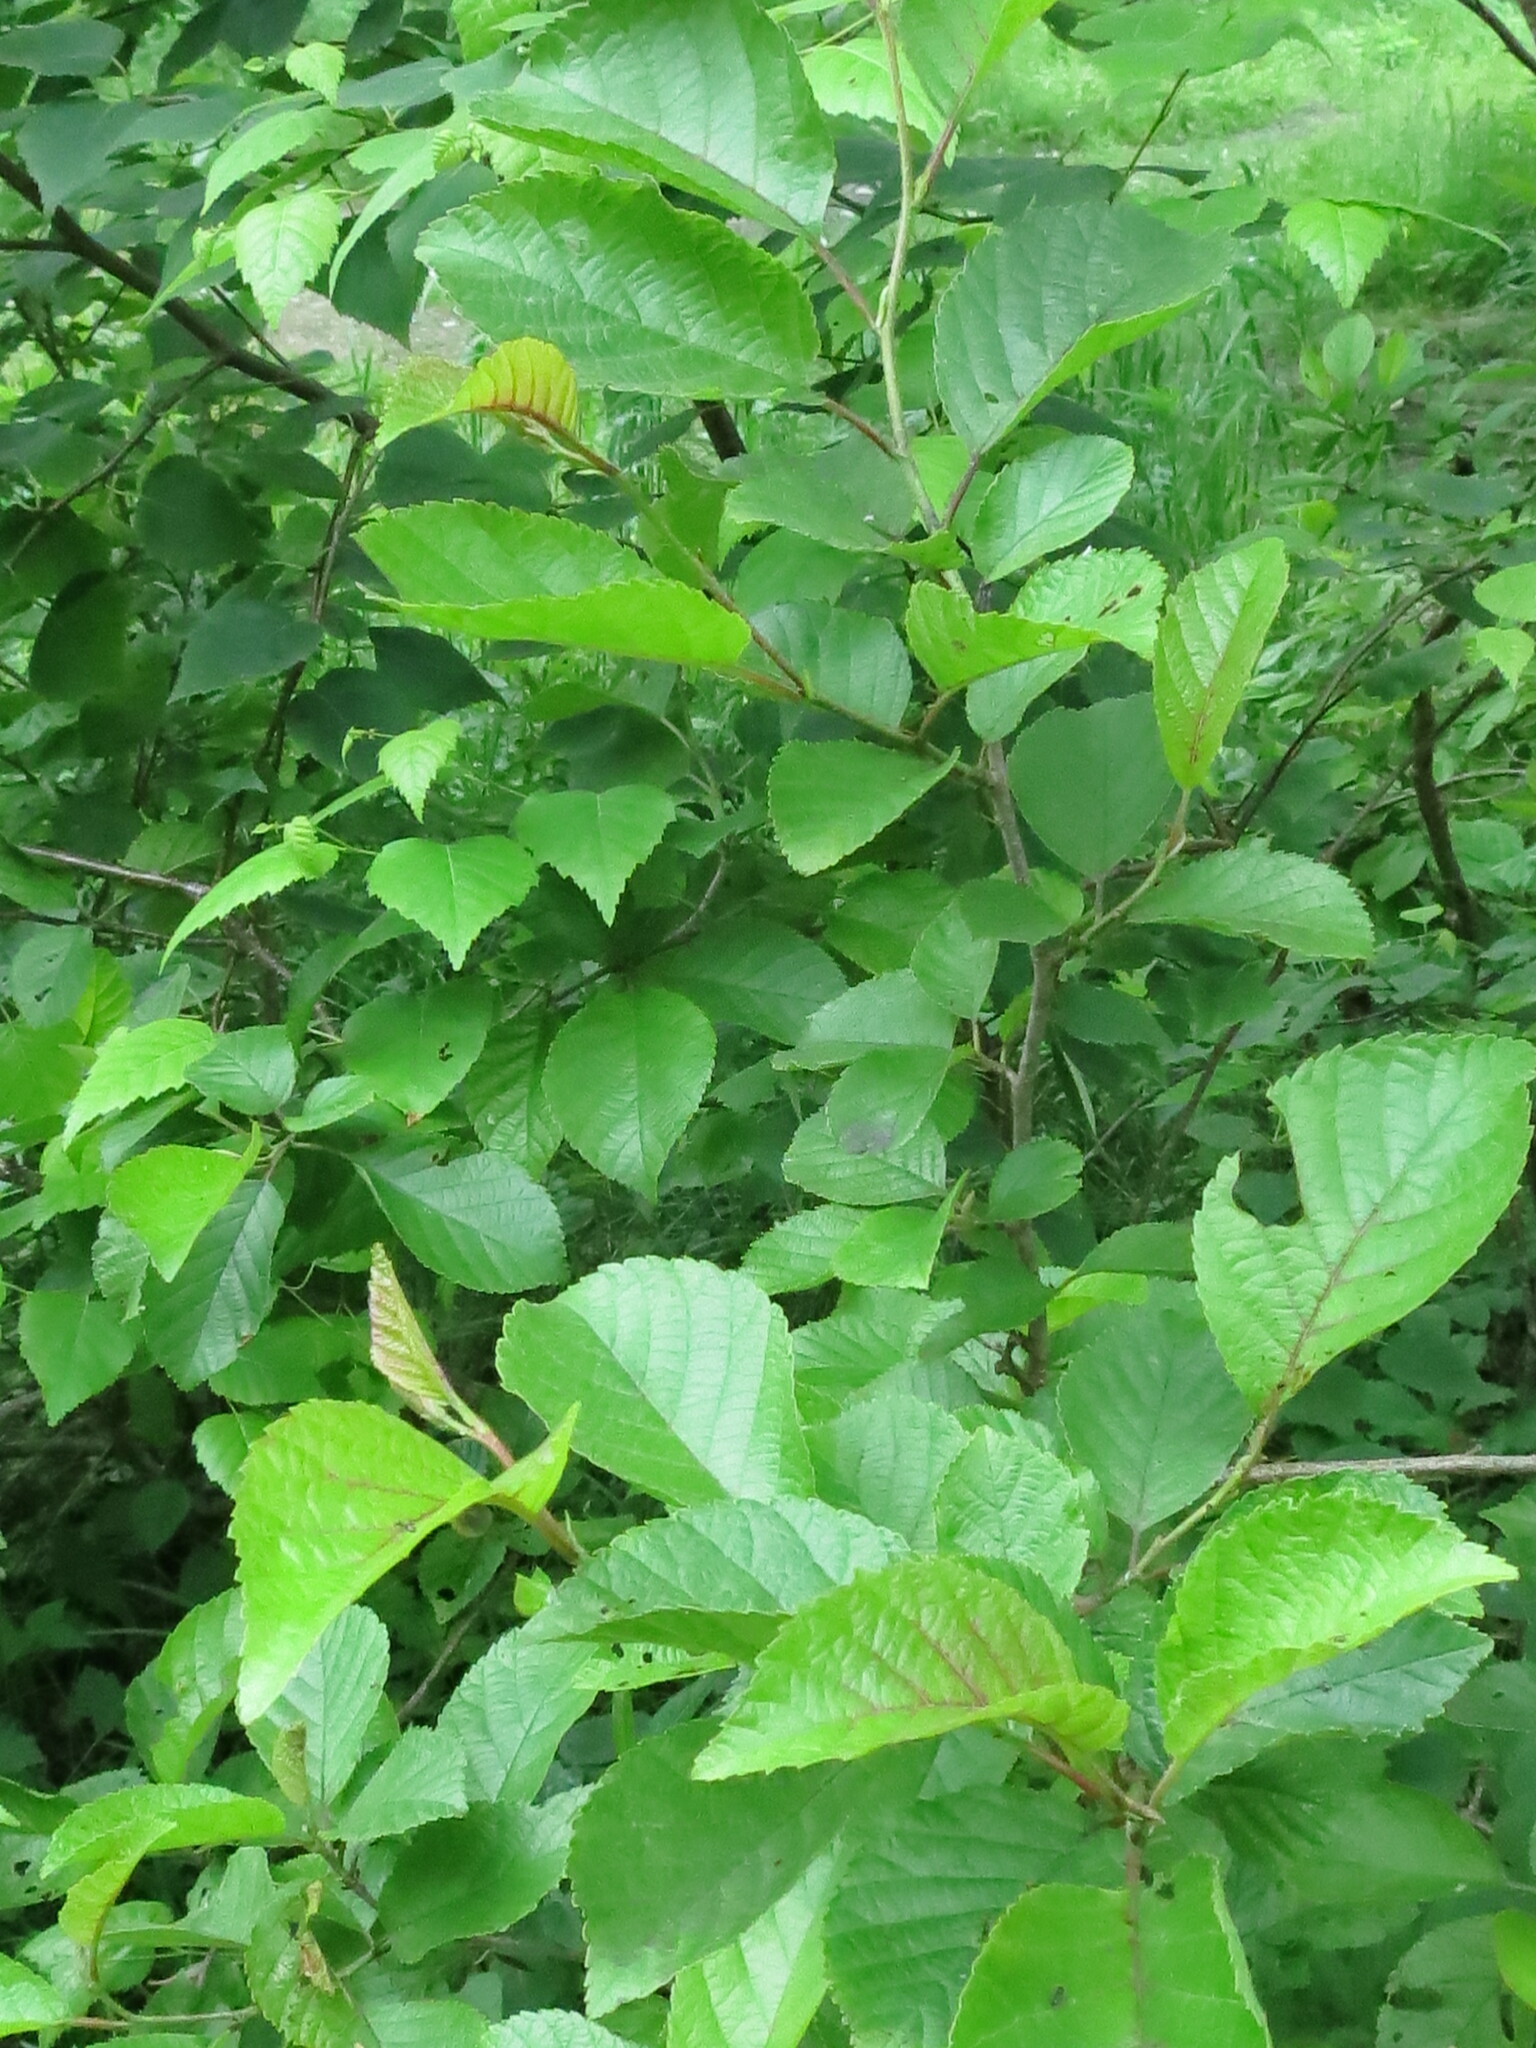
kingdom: Plantae
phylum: Tracheophyta
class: Magnoliopsida
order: Fagales
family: Betulaceae
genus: Alnus
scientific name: Alnus japonica
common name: Japanese alder
